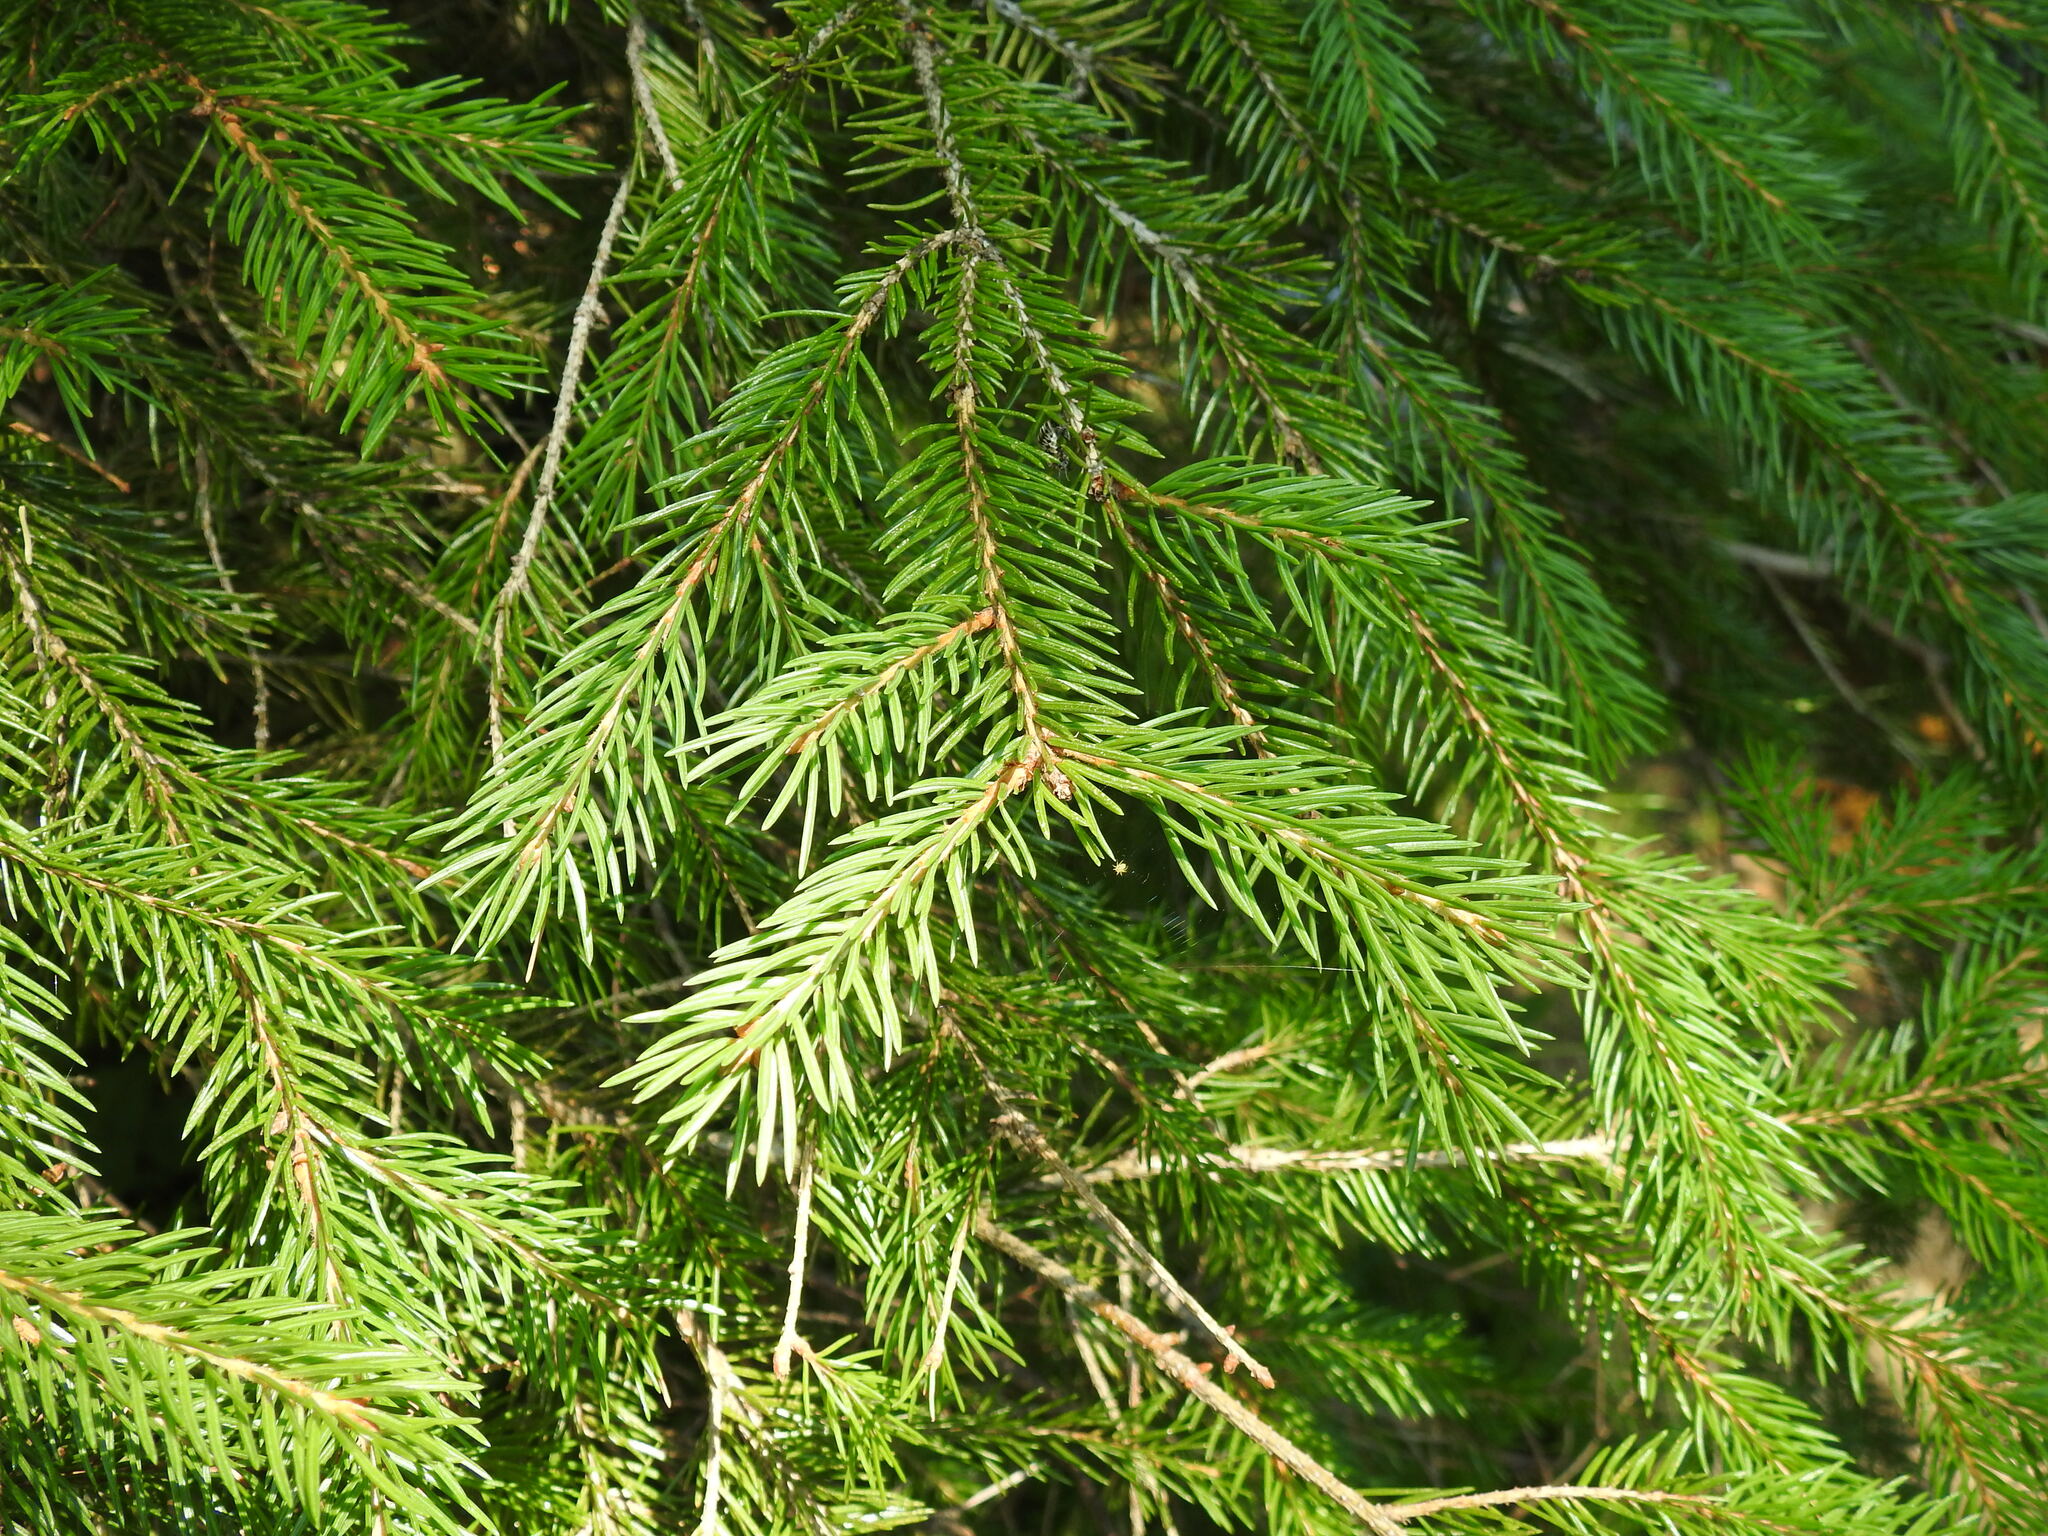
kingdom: Plantae
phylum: Tracheophyta
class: Pinopsida
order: Pinales
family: Pinaceae
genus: Picea
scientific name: Picea abies
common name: Norway spruce
